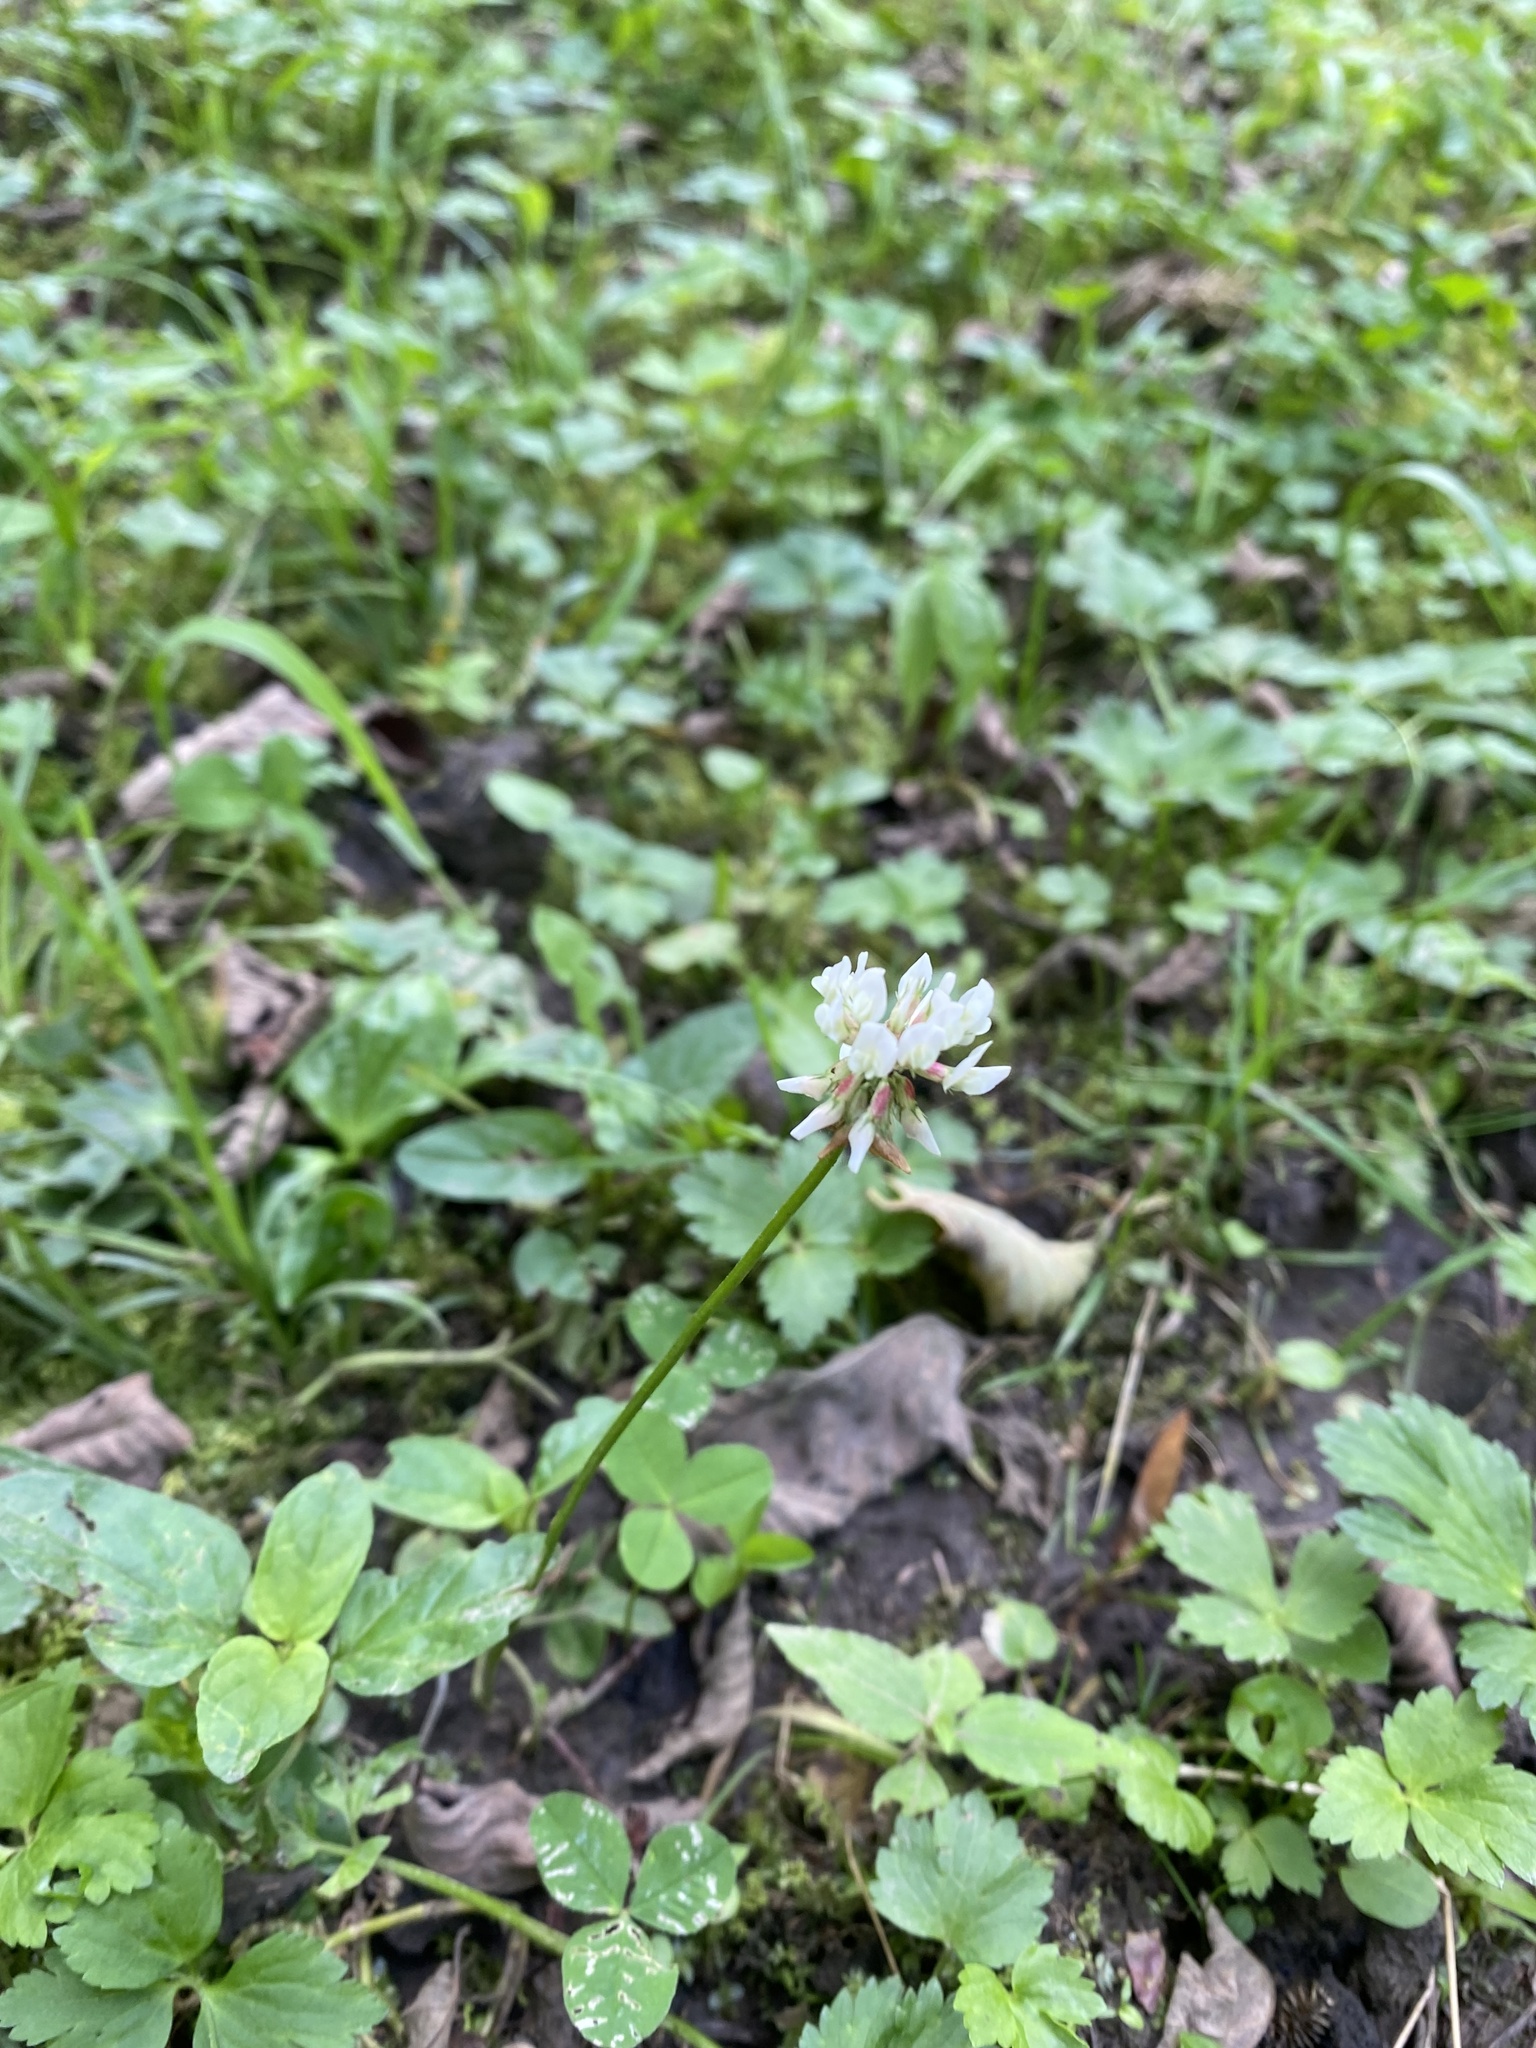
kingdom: Plantae
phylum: Tracheophyta
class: Magnoliopsida
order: Fabales
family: Fabaceae
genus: Trifolium
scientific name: Trifolium repens
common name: White clover
